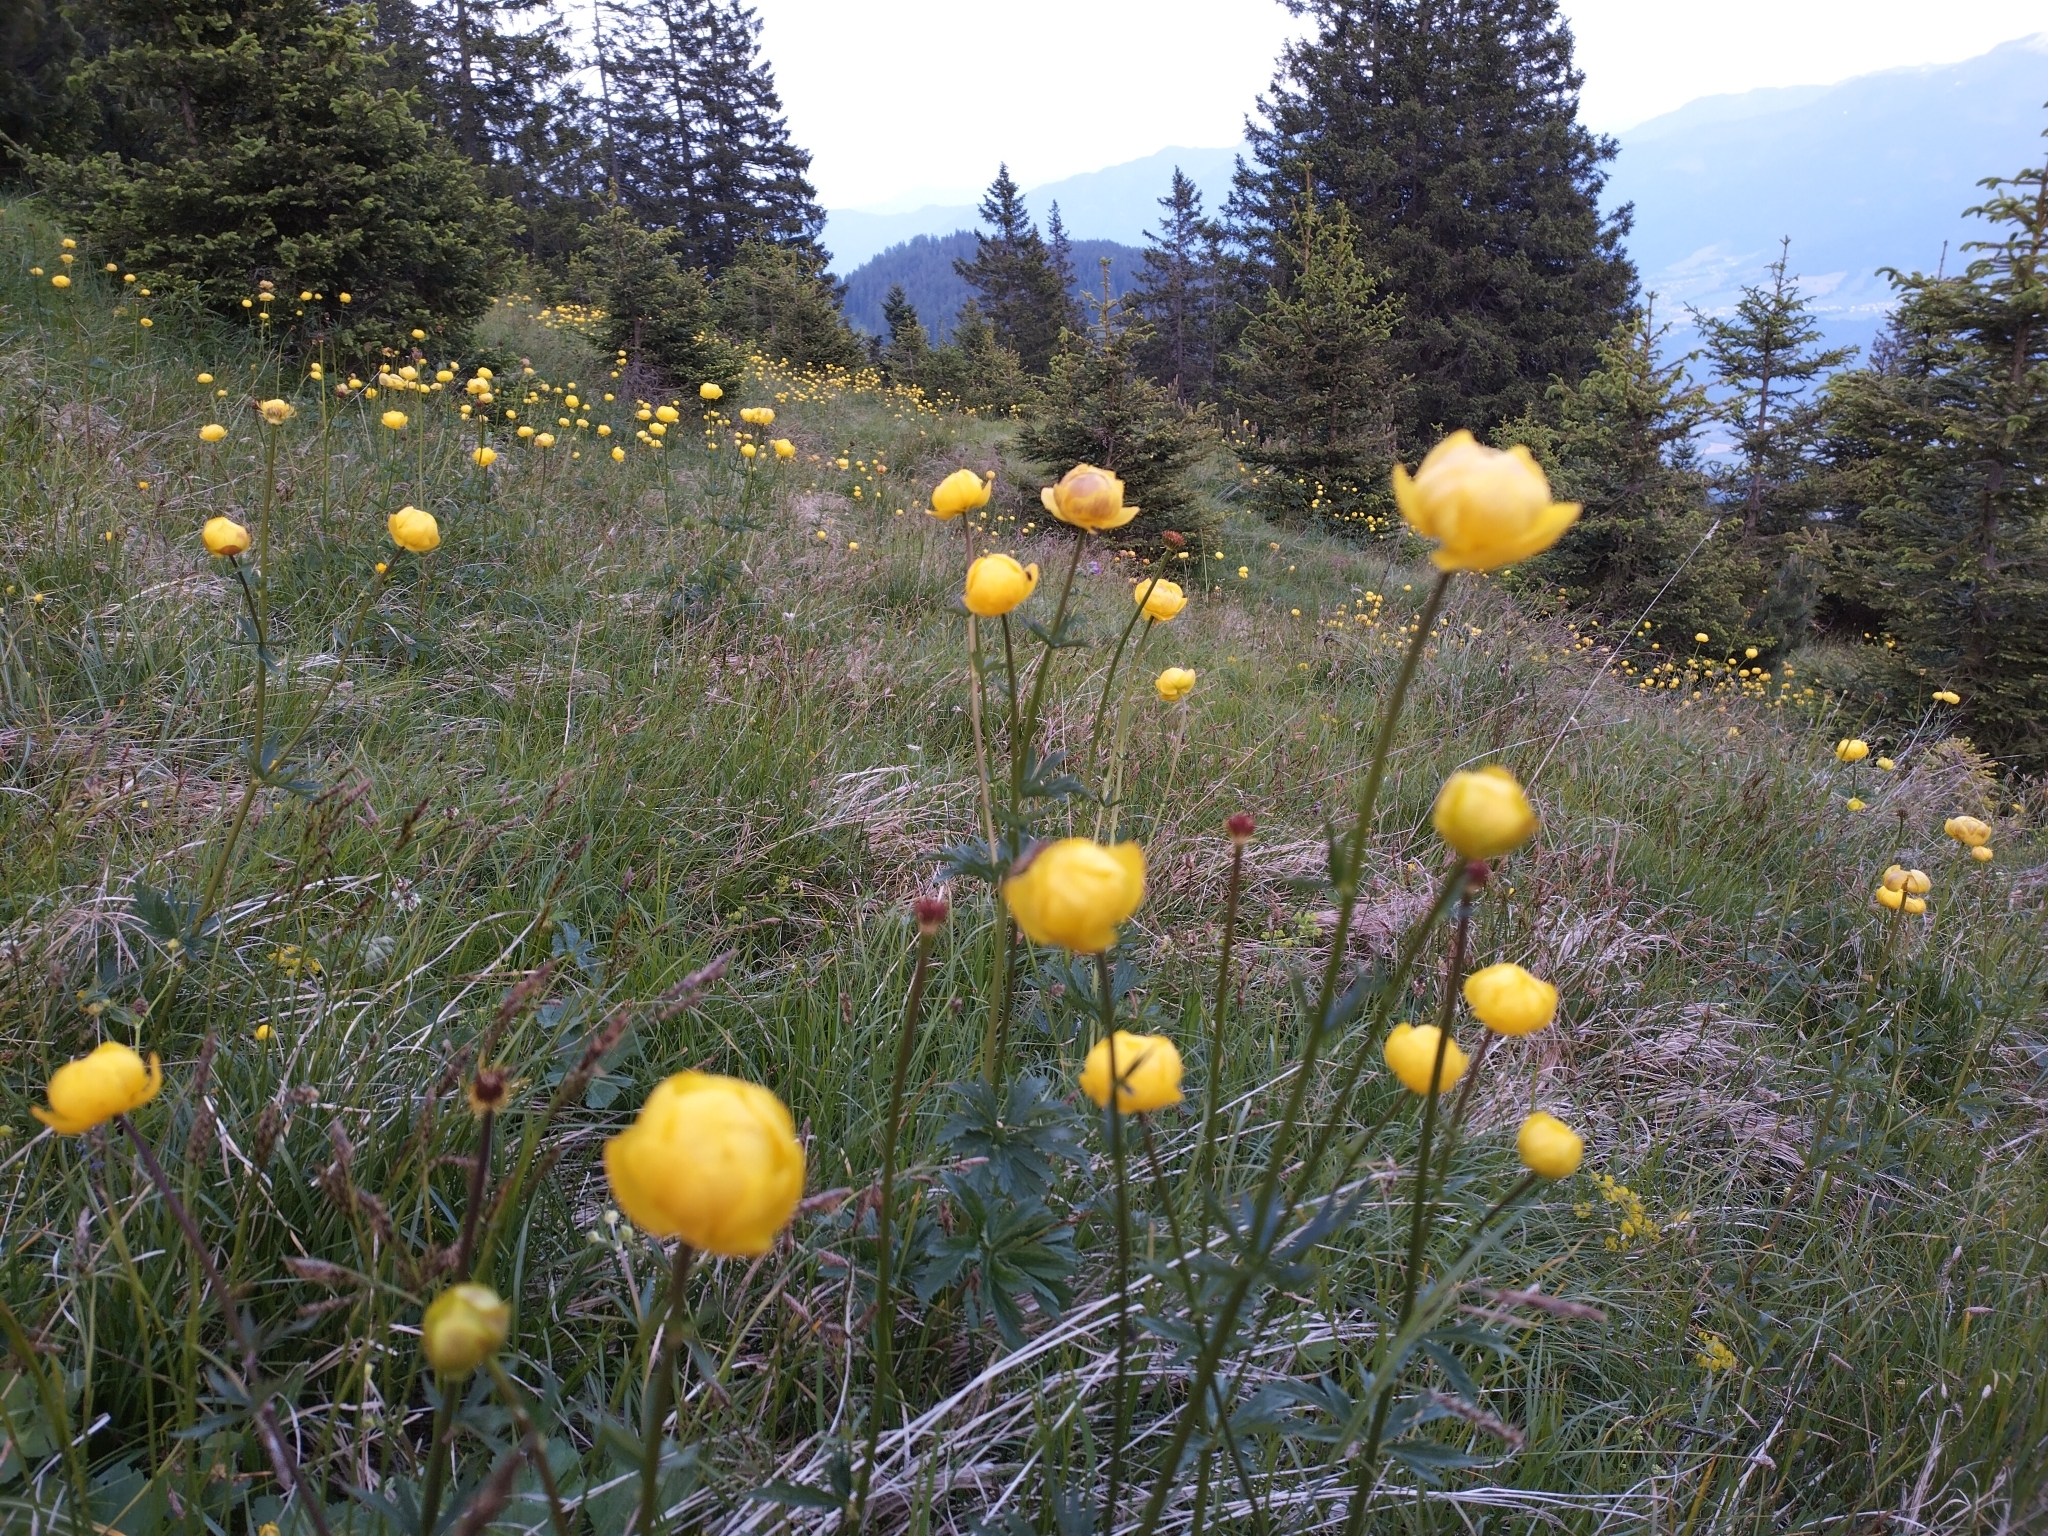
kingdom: Plantae
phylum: Tracheophyta
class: Magnoliopsida
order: Ranunculales
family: Ranunculaceae
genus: Trollius
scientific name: Trollius europaeus
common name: European globeflower
